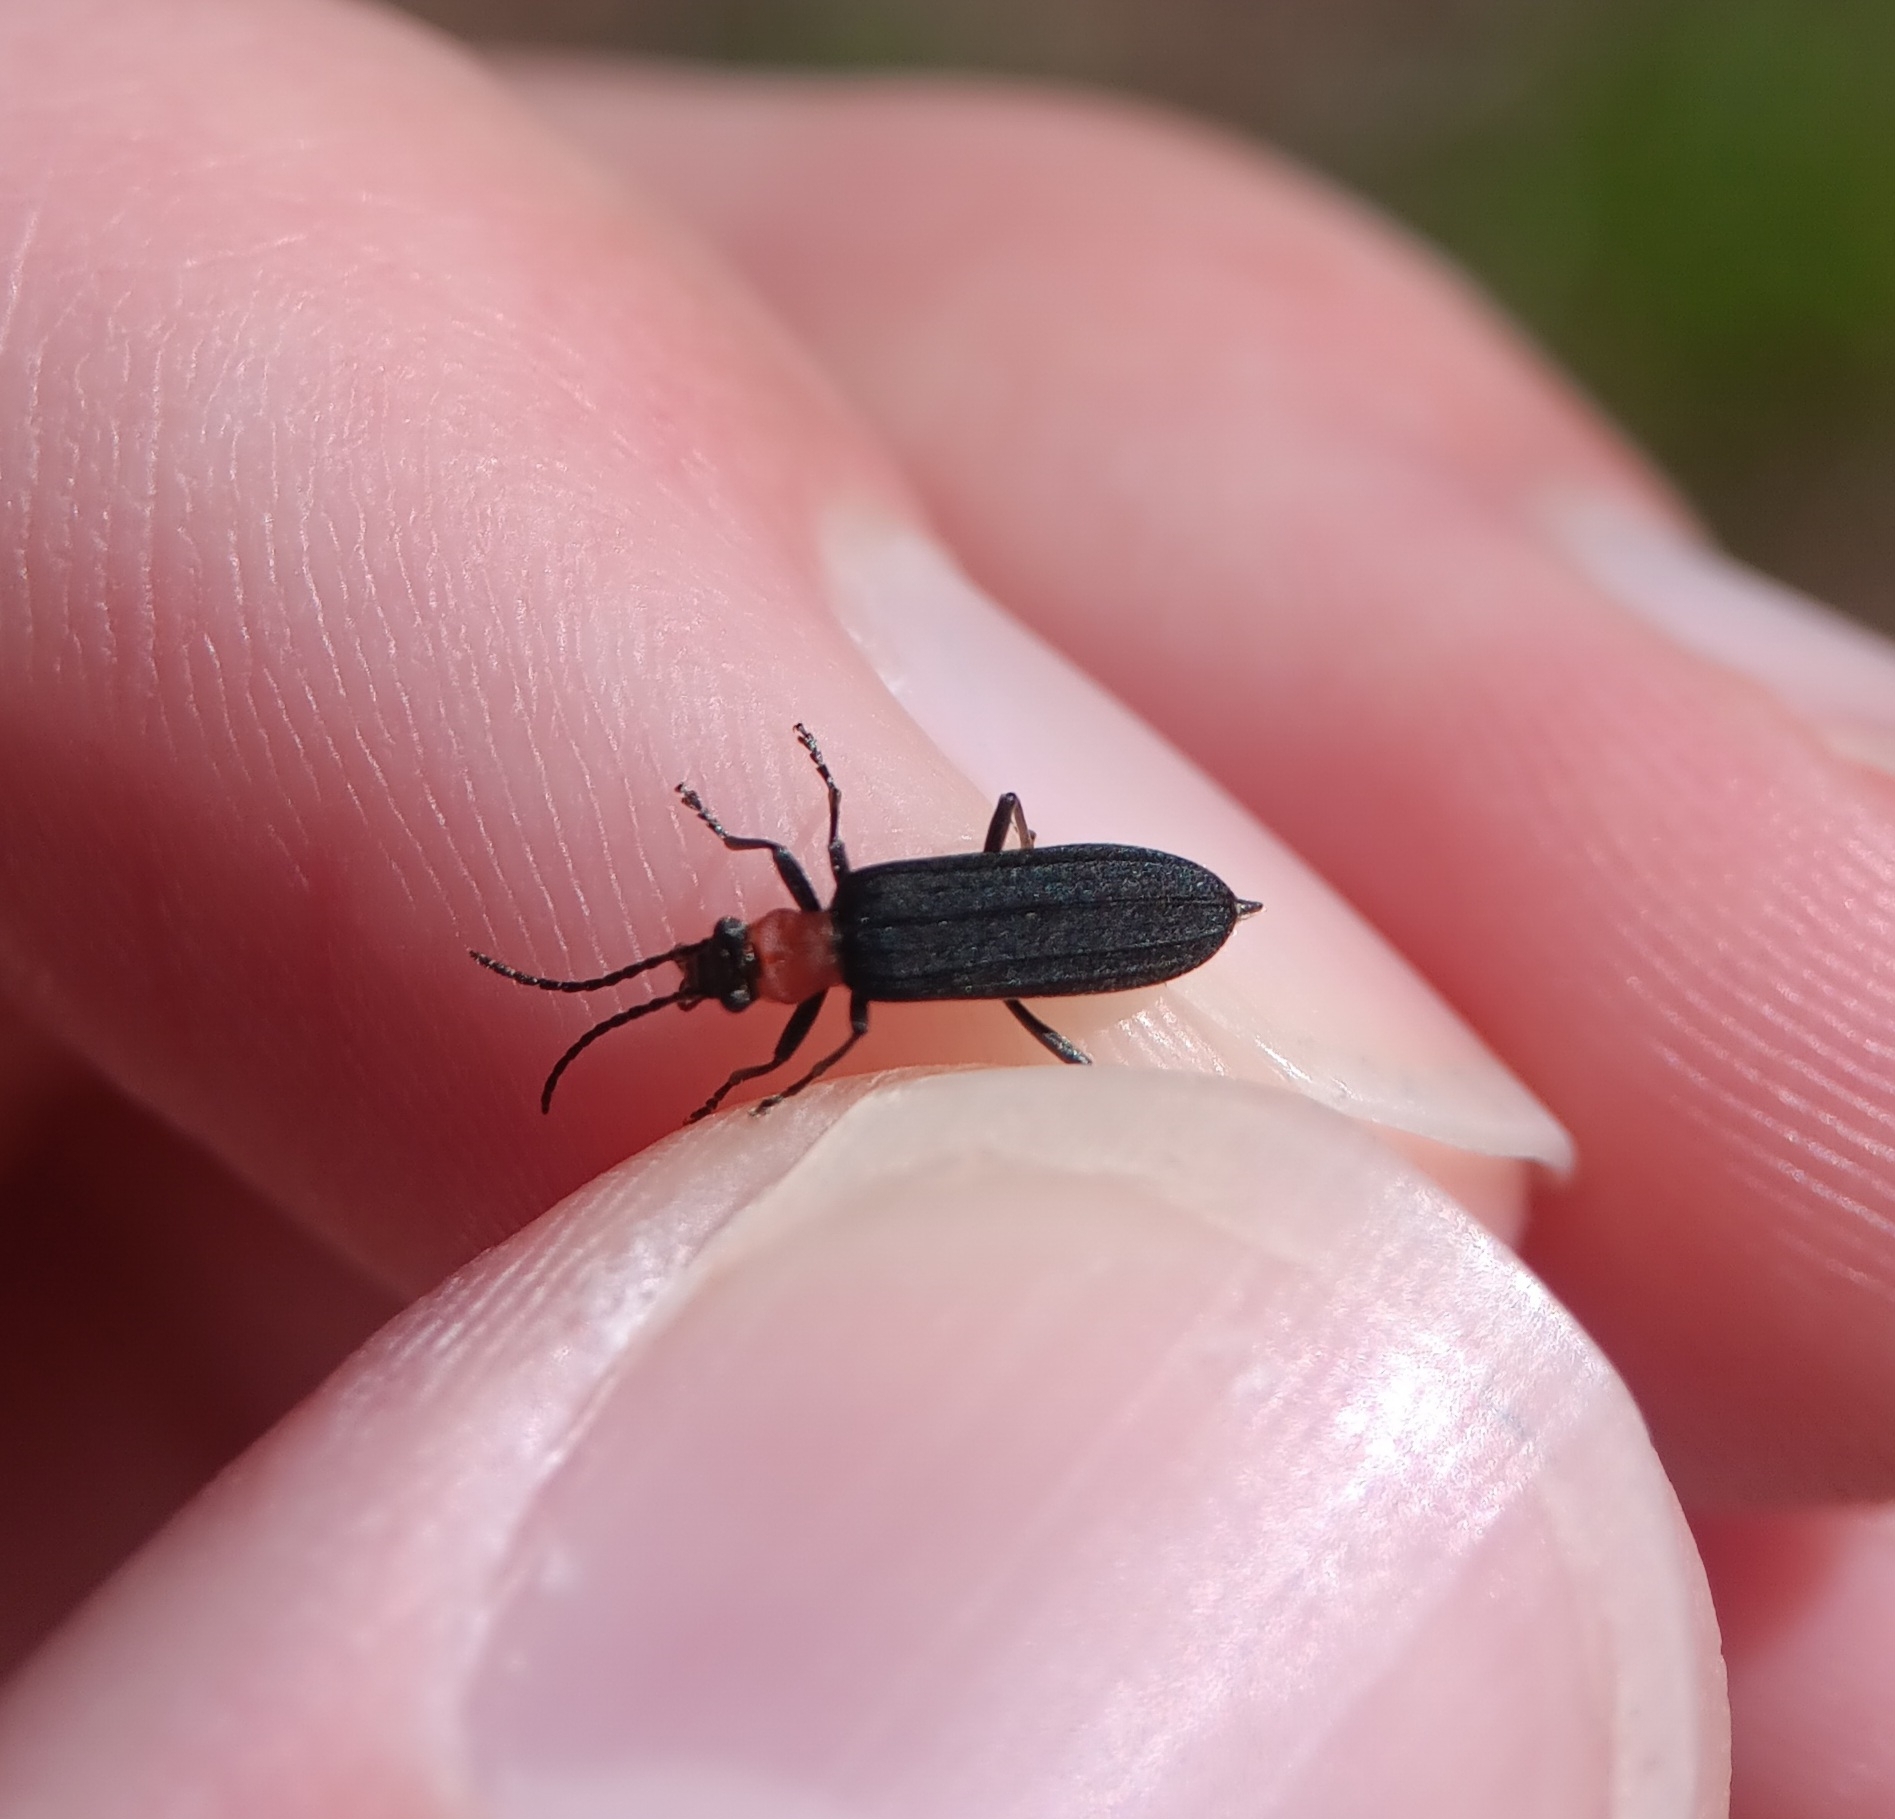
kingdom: Animalia
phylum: Arthropoda
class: Insecta
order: Coleoptera
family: Oedemeridae
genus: Ischnomera
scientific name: Ischnomera
